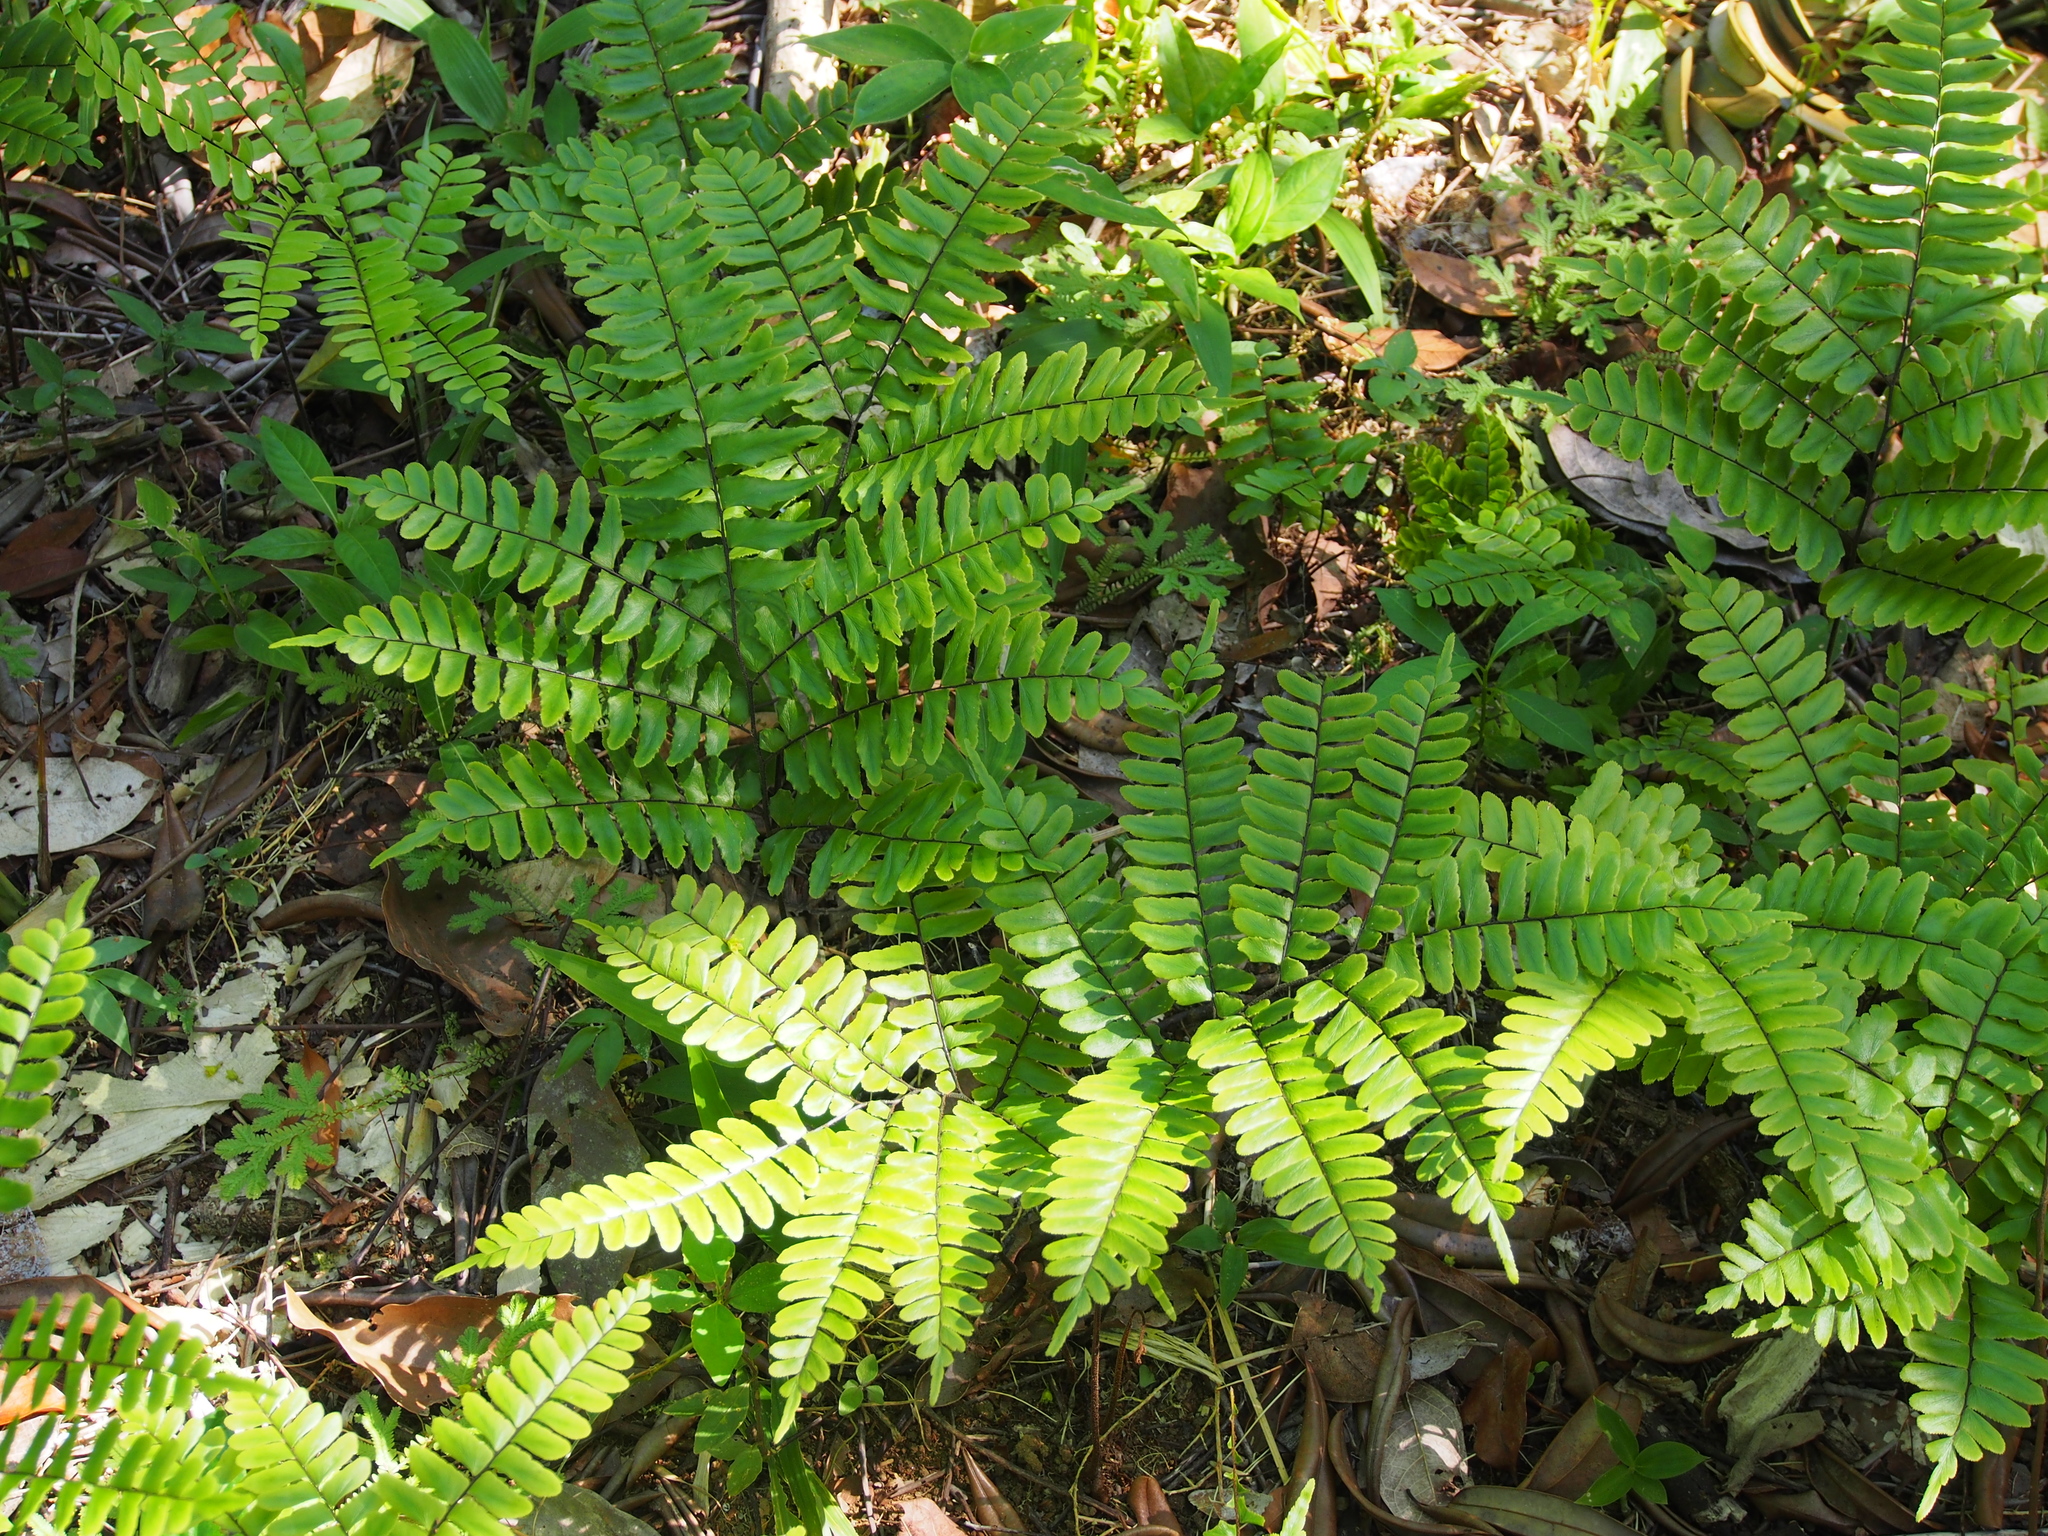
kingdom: Plantae
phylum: Tracheophyta
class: Polypodiopsida
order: Polypodiales
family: Pteridaceae
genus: Adiantum
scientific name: Adiantum latifolium
